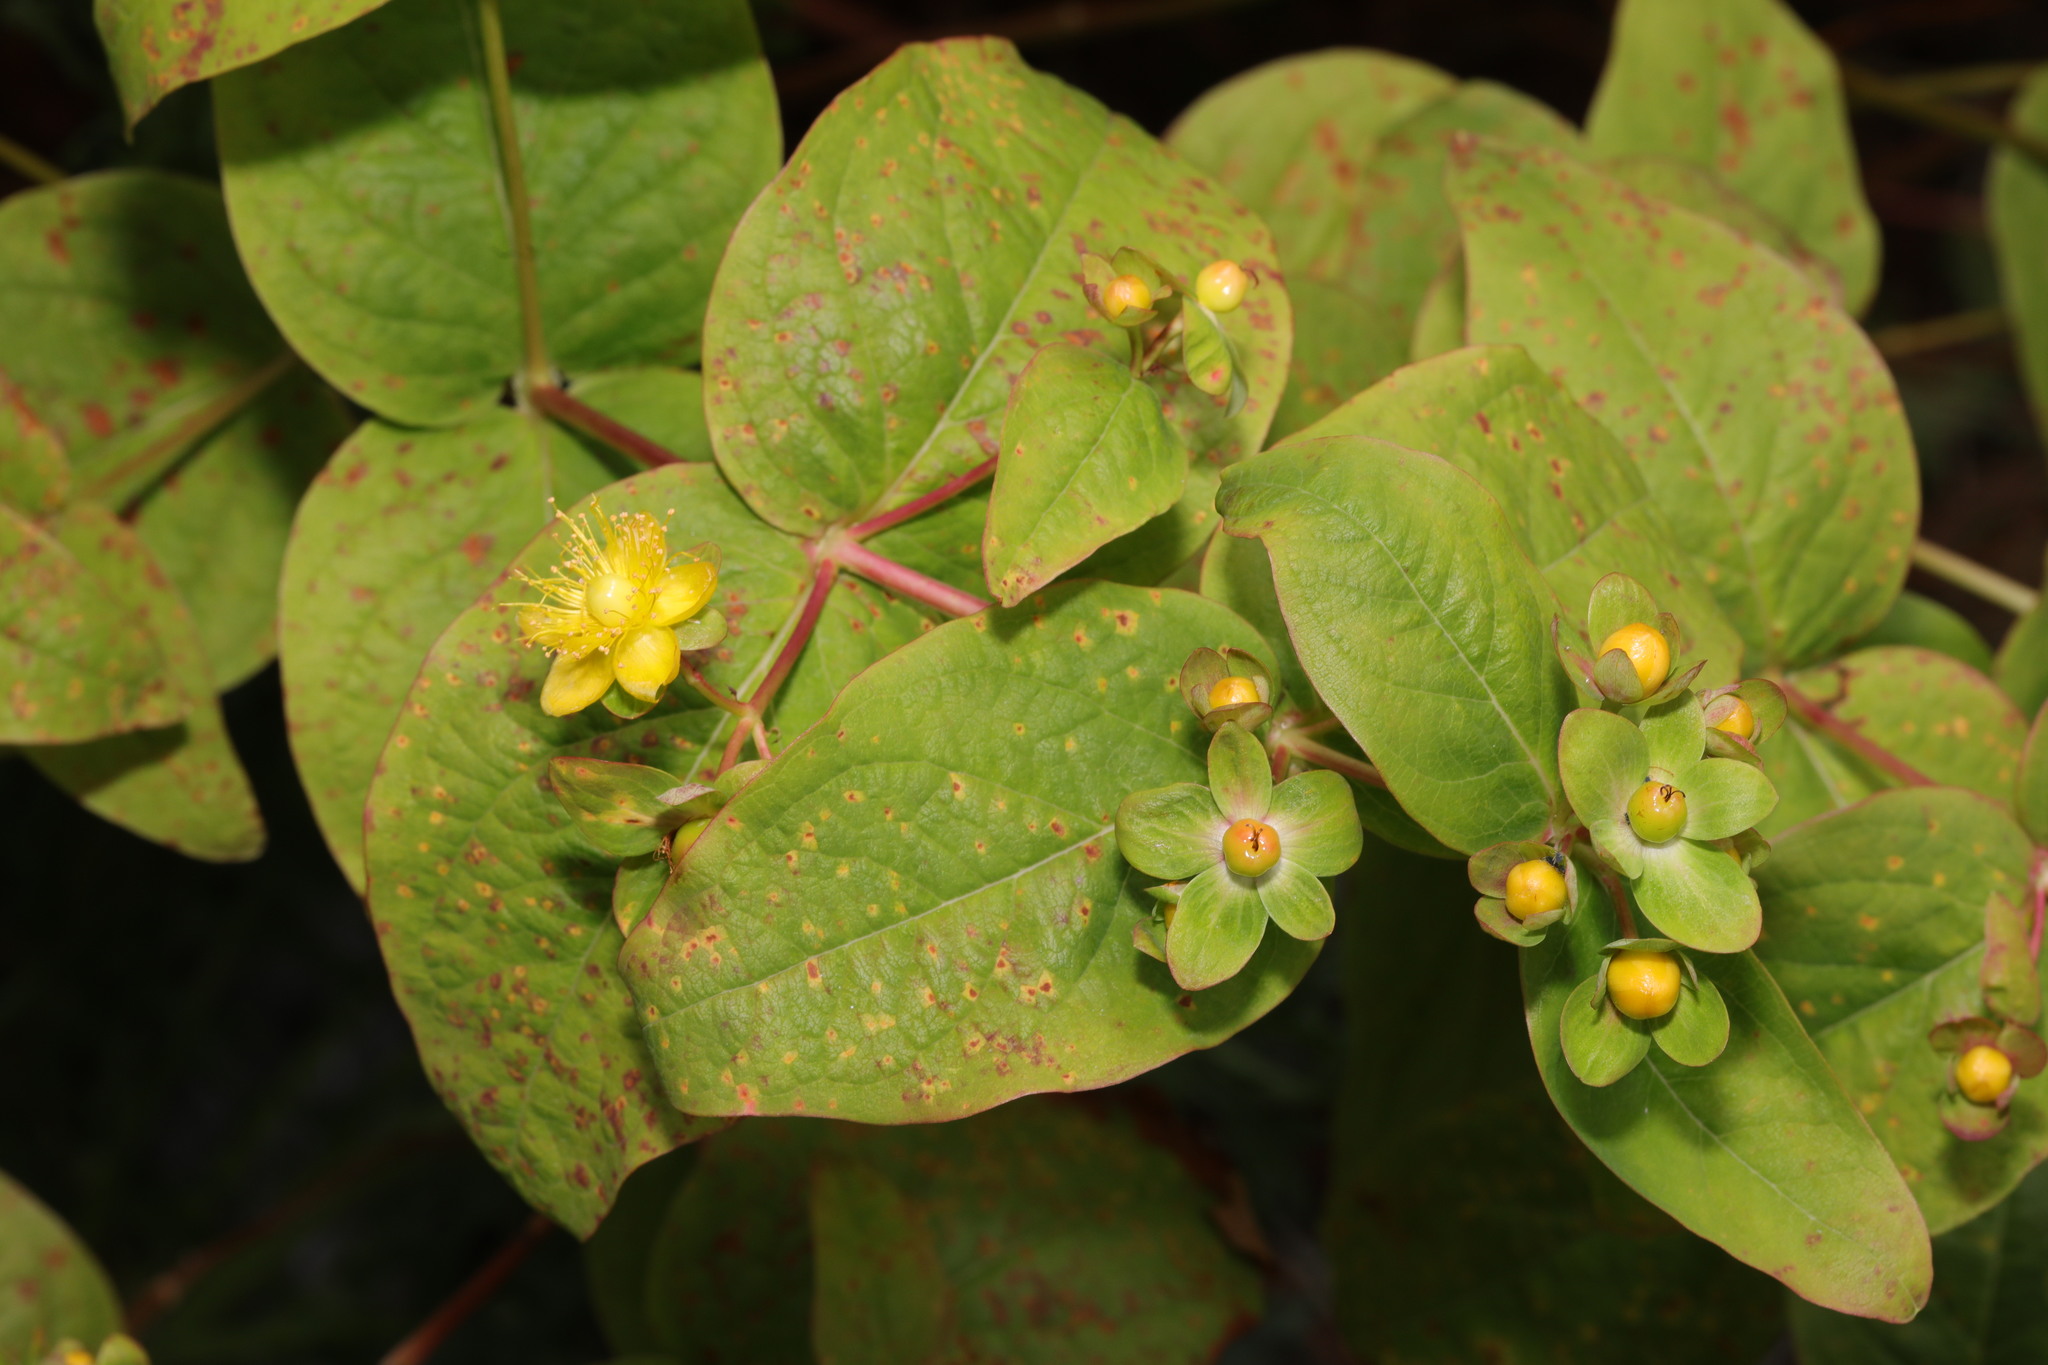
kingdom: Plantae
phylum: Tracheophyta
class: Magnoliopsida
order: Malpighiales
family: Hypericaceae
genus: Hypericum
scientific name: Hypericum androsaemum
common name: Sweet-amber
